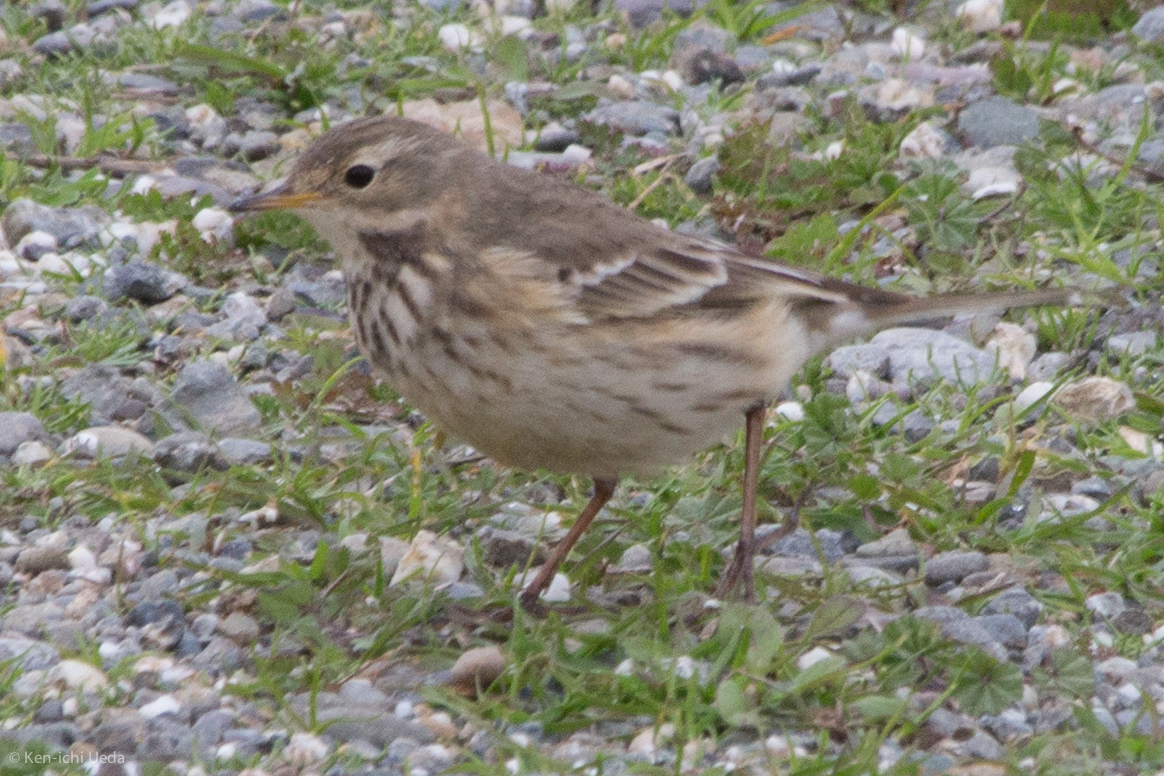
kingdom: Animalia
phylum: Chordata
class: Aves
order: Passeriformes
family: Motacillidae
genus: Anthus
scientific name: Anthus rubescens
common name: Buff-bellied pipit
